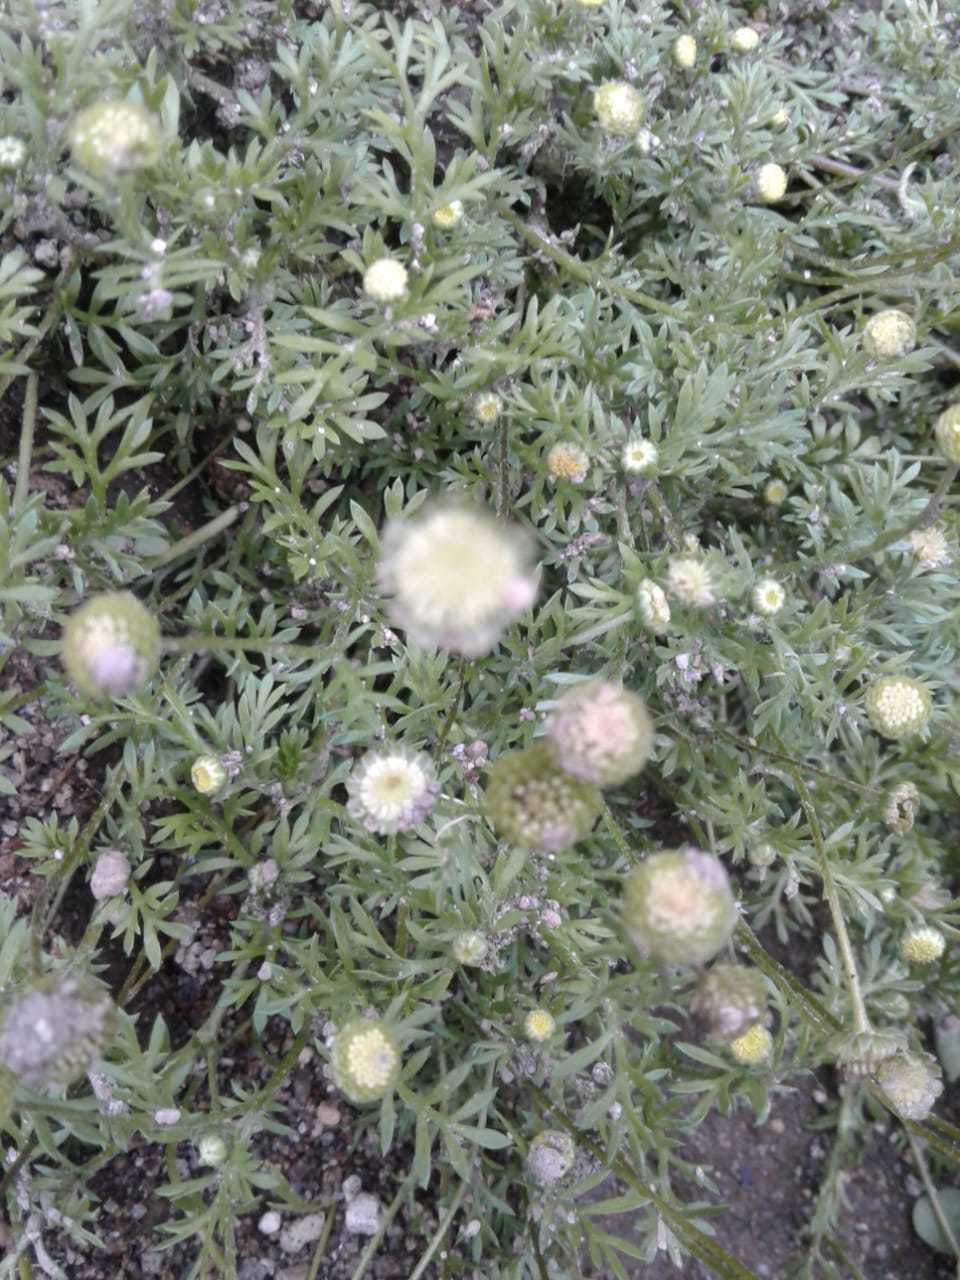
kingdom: Plantae
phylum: Tracheophyta
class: Magnoliopsida
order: Asterales
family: Asteraceae
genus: Cotula
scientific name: Cotula australis
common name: Australian waterbuttons
